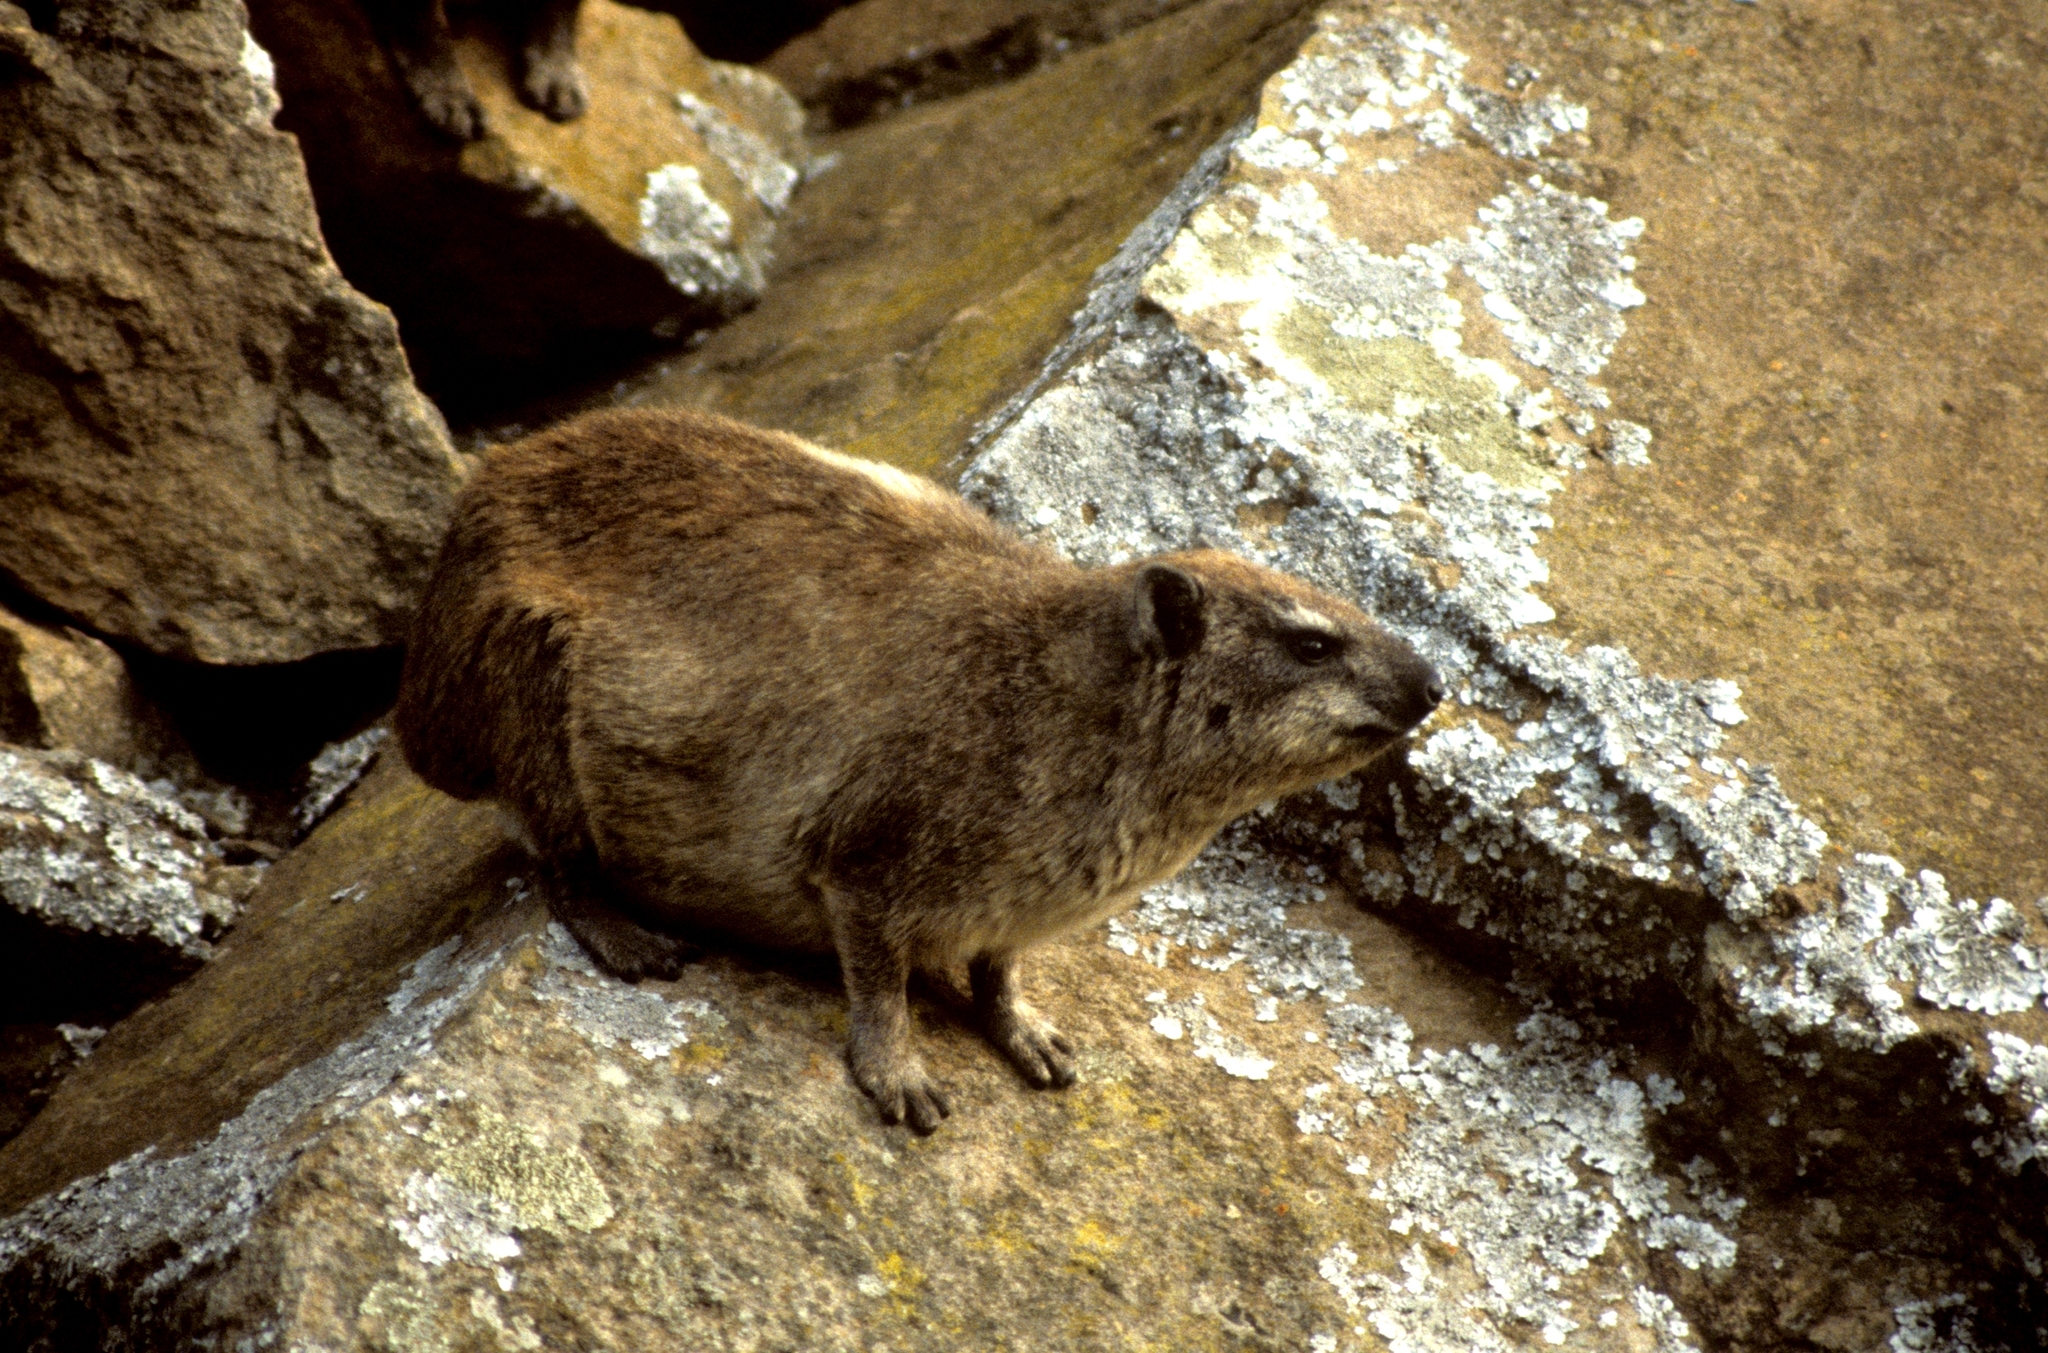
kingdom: Animalia
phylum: Chordata
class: Mammalia
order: Hyracoidea
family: Procaviidae
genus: Procavia
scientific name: Procavia capensis
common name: Rock hyrax
